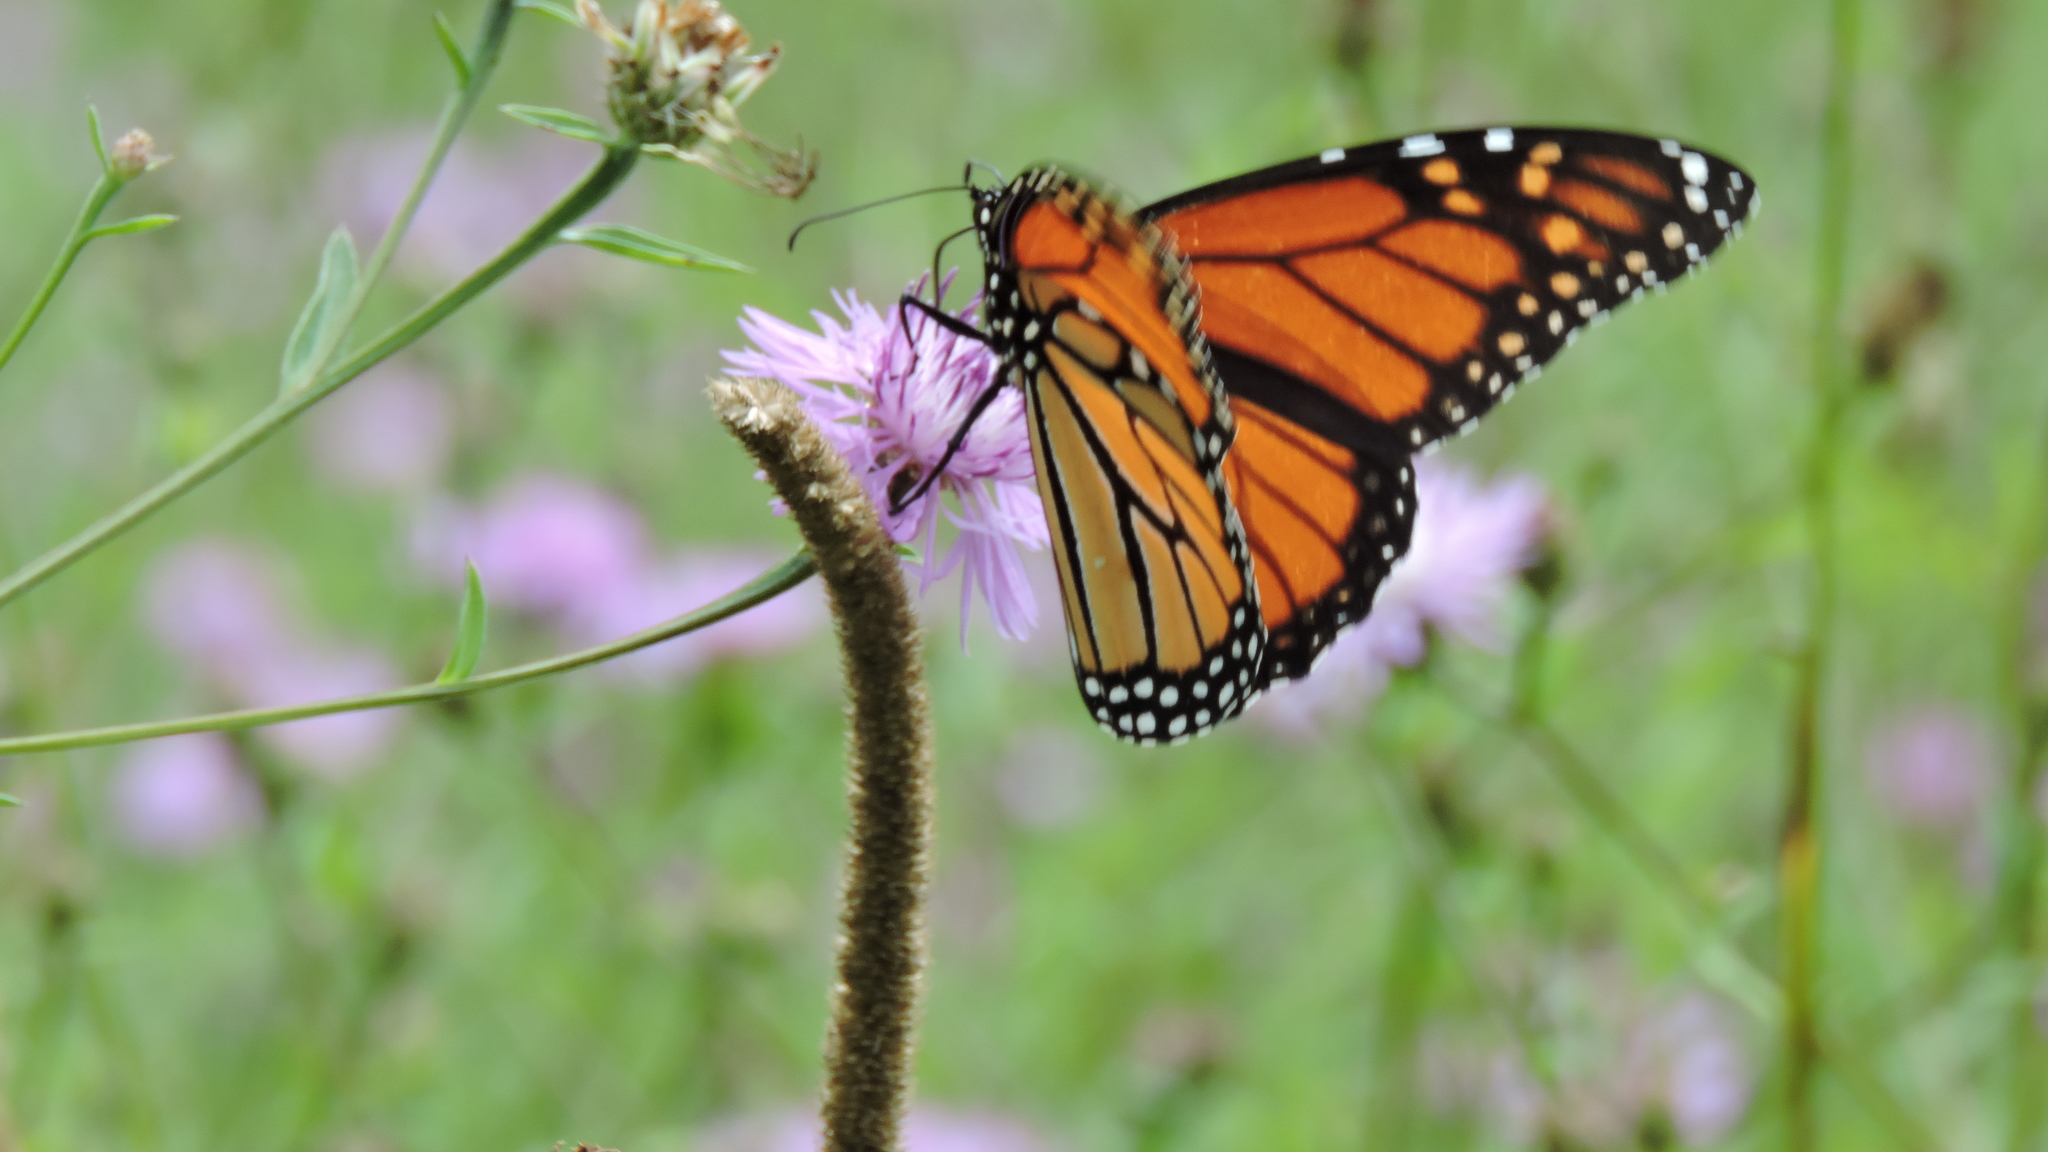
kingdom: Animalia
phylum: Arthropoda
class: Insecta
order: Lepidoptera
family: Nymphalidae
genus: Danaus
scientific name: Danaus plexippus
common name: Monarch
